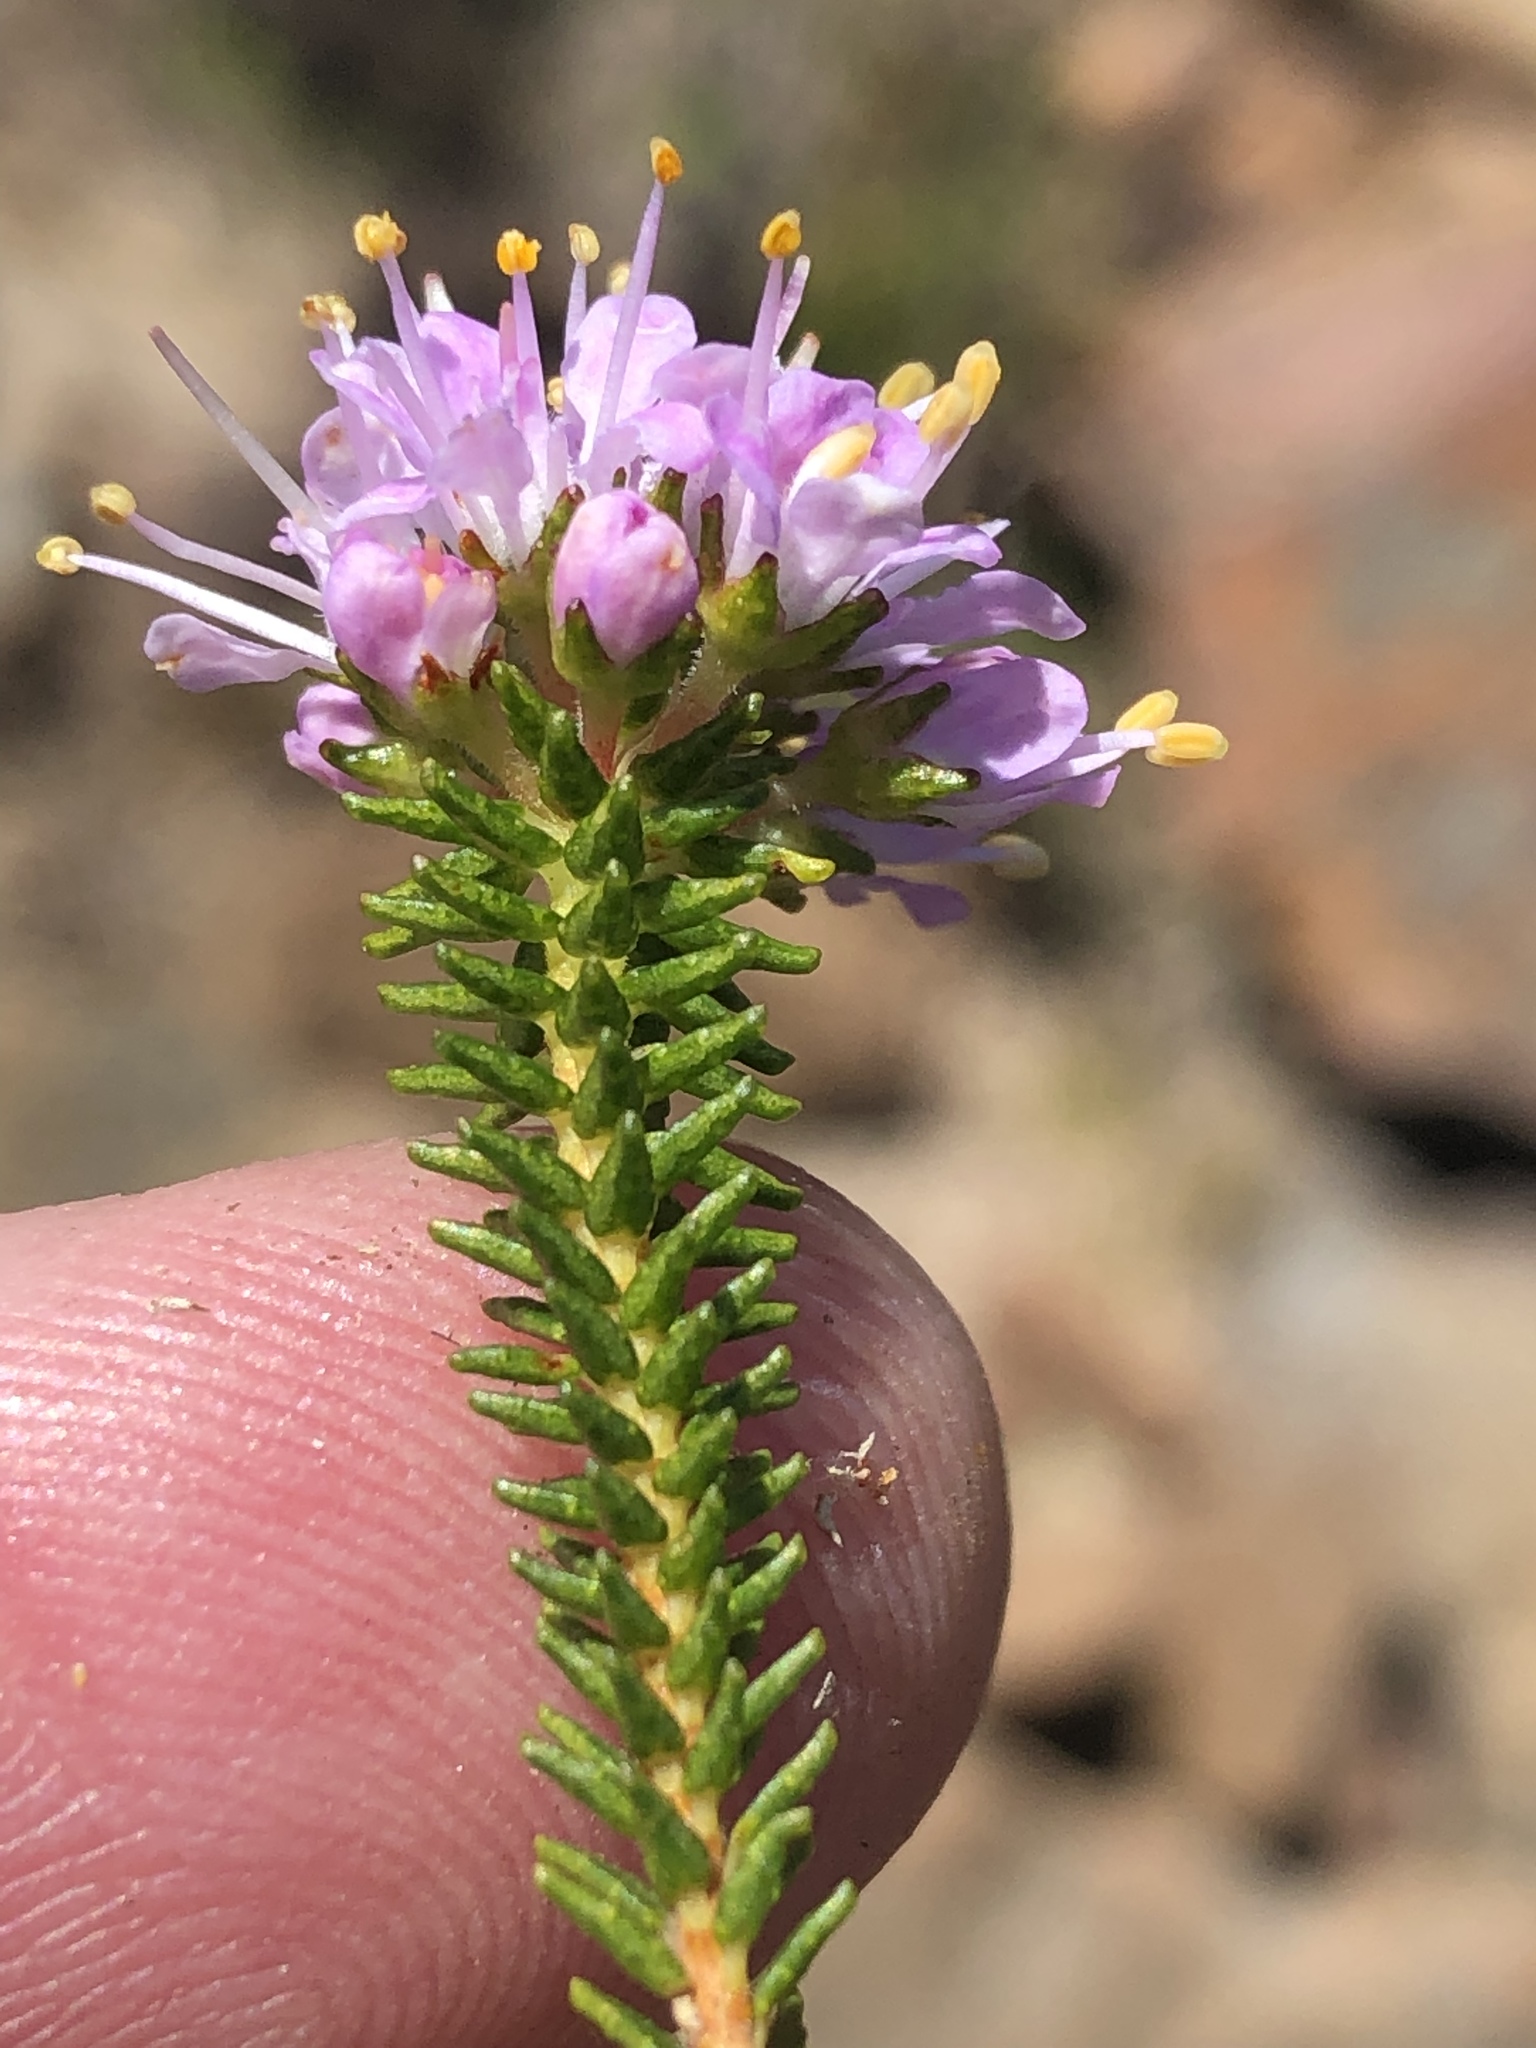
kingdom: Plantae
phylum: Tracheophyta
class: Magnoliopsida
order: Sapindales
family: Rutaceae
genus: Agathosma
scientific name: Agathosma juniperifolia
